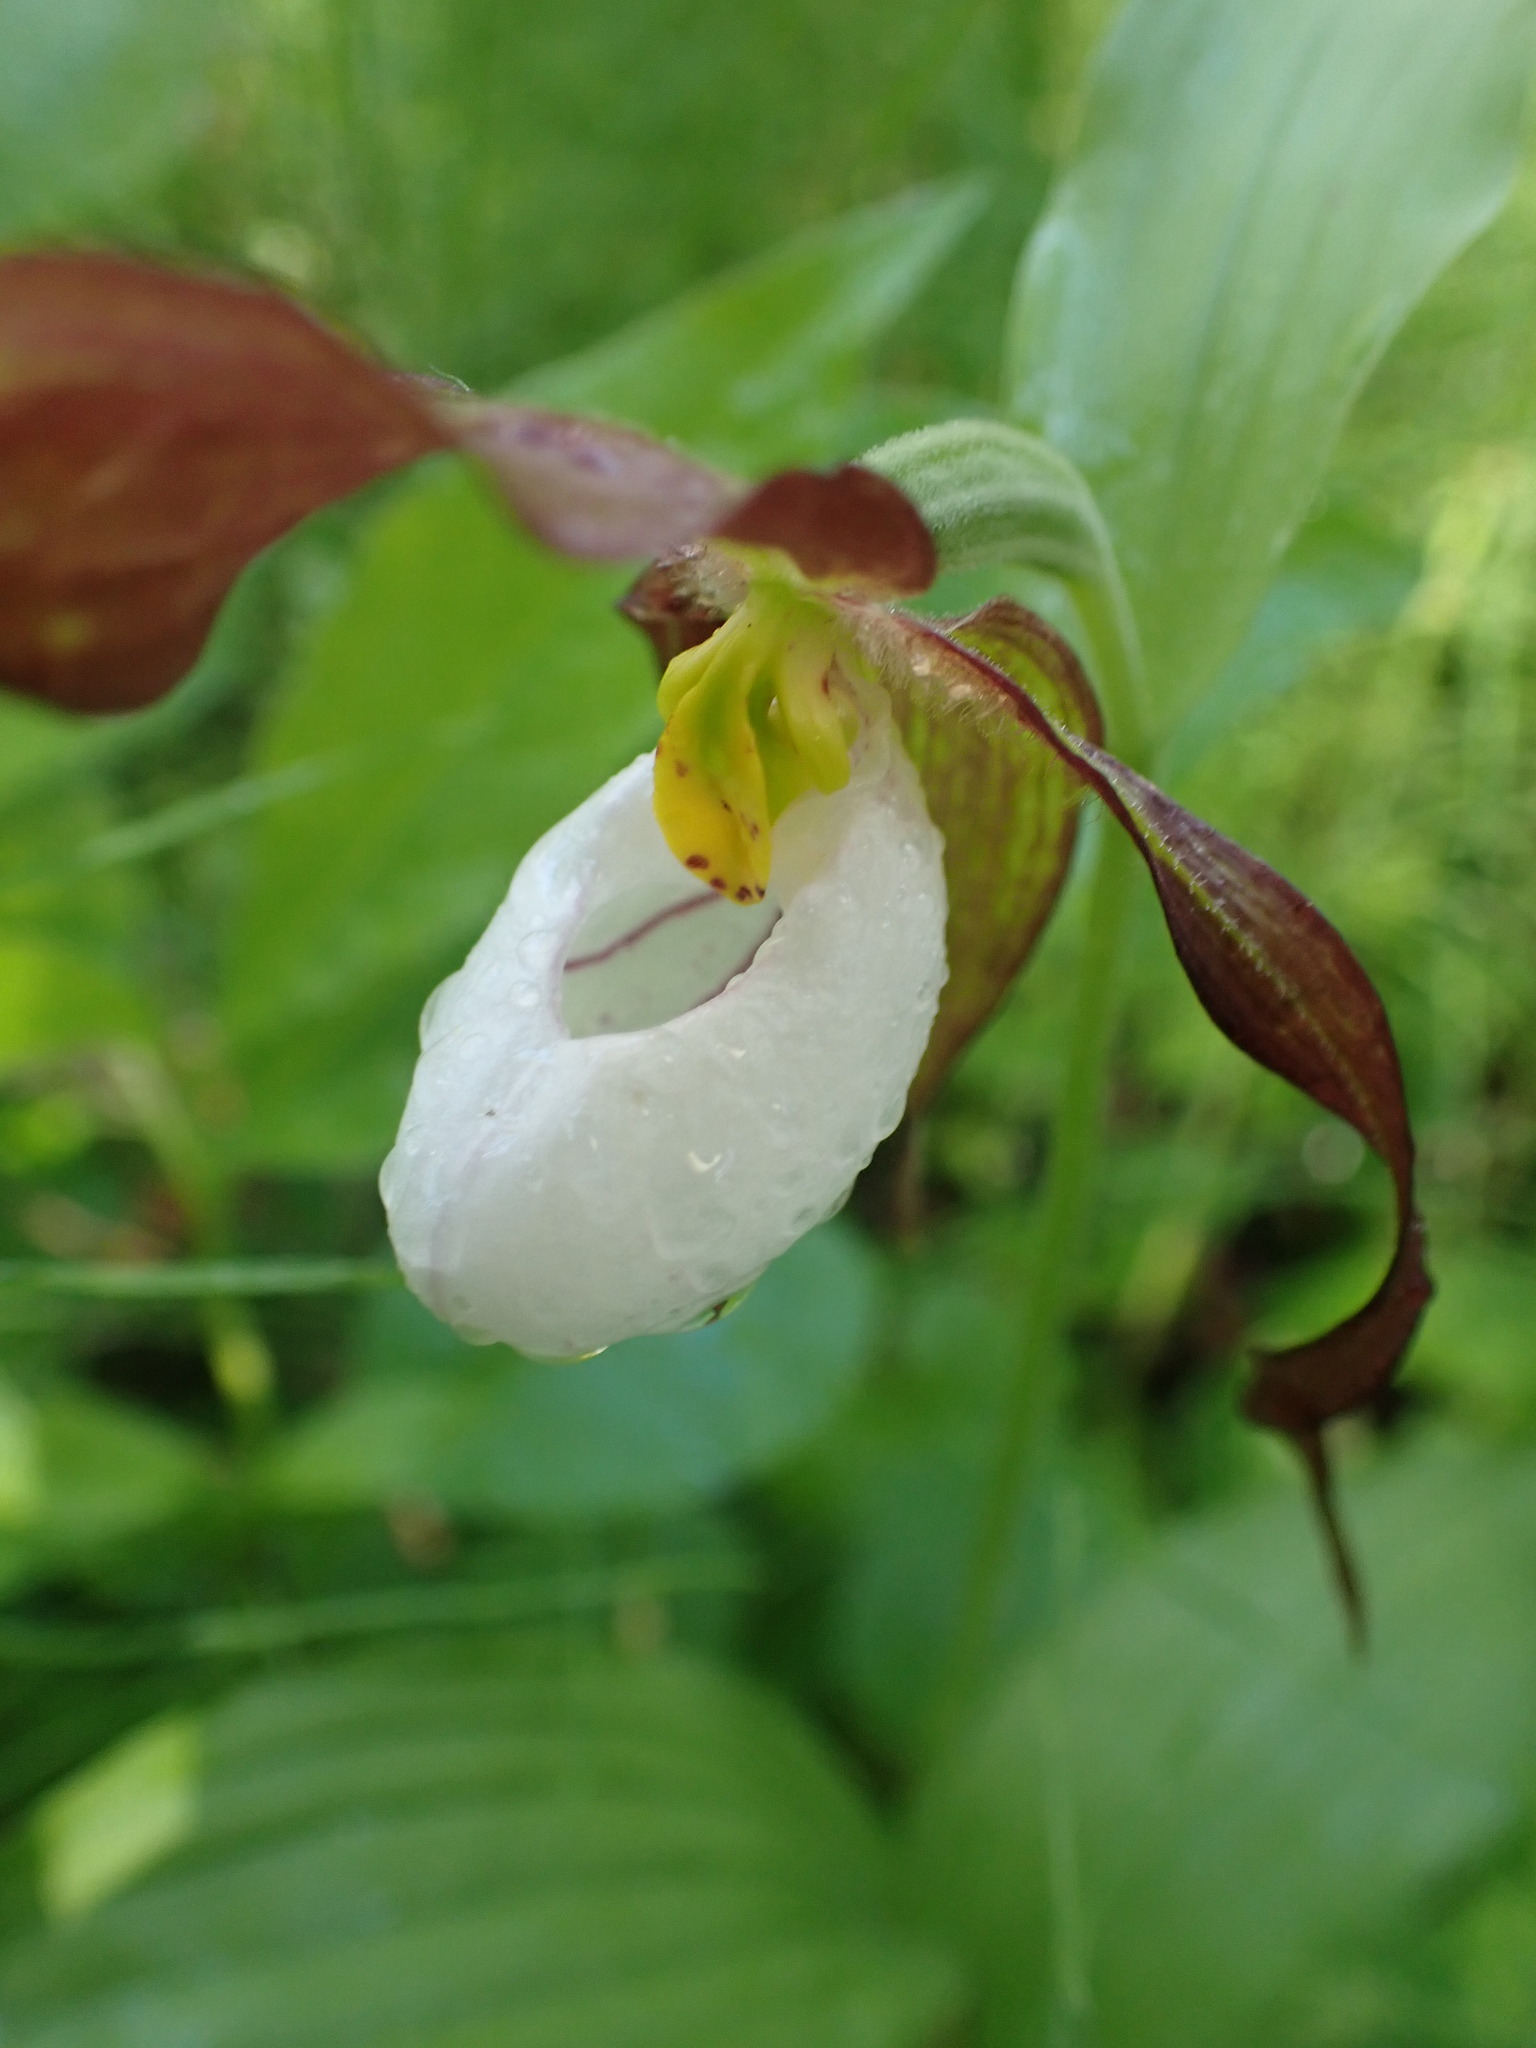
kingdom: Plantae
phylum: Tracheophyta
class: Liliopsida
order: Asparagales
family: Orchidaceae
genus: Cypripedium
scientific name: Cypripedium montanum
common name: Mountain lady's-slipper
